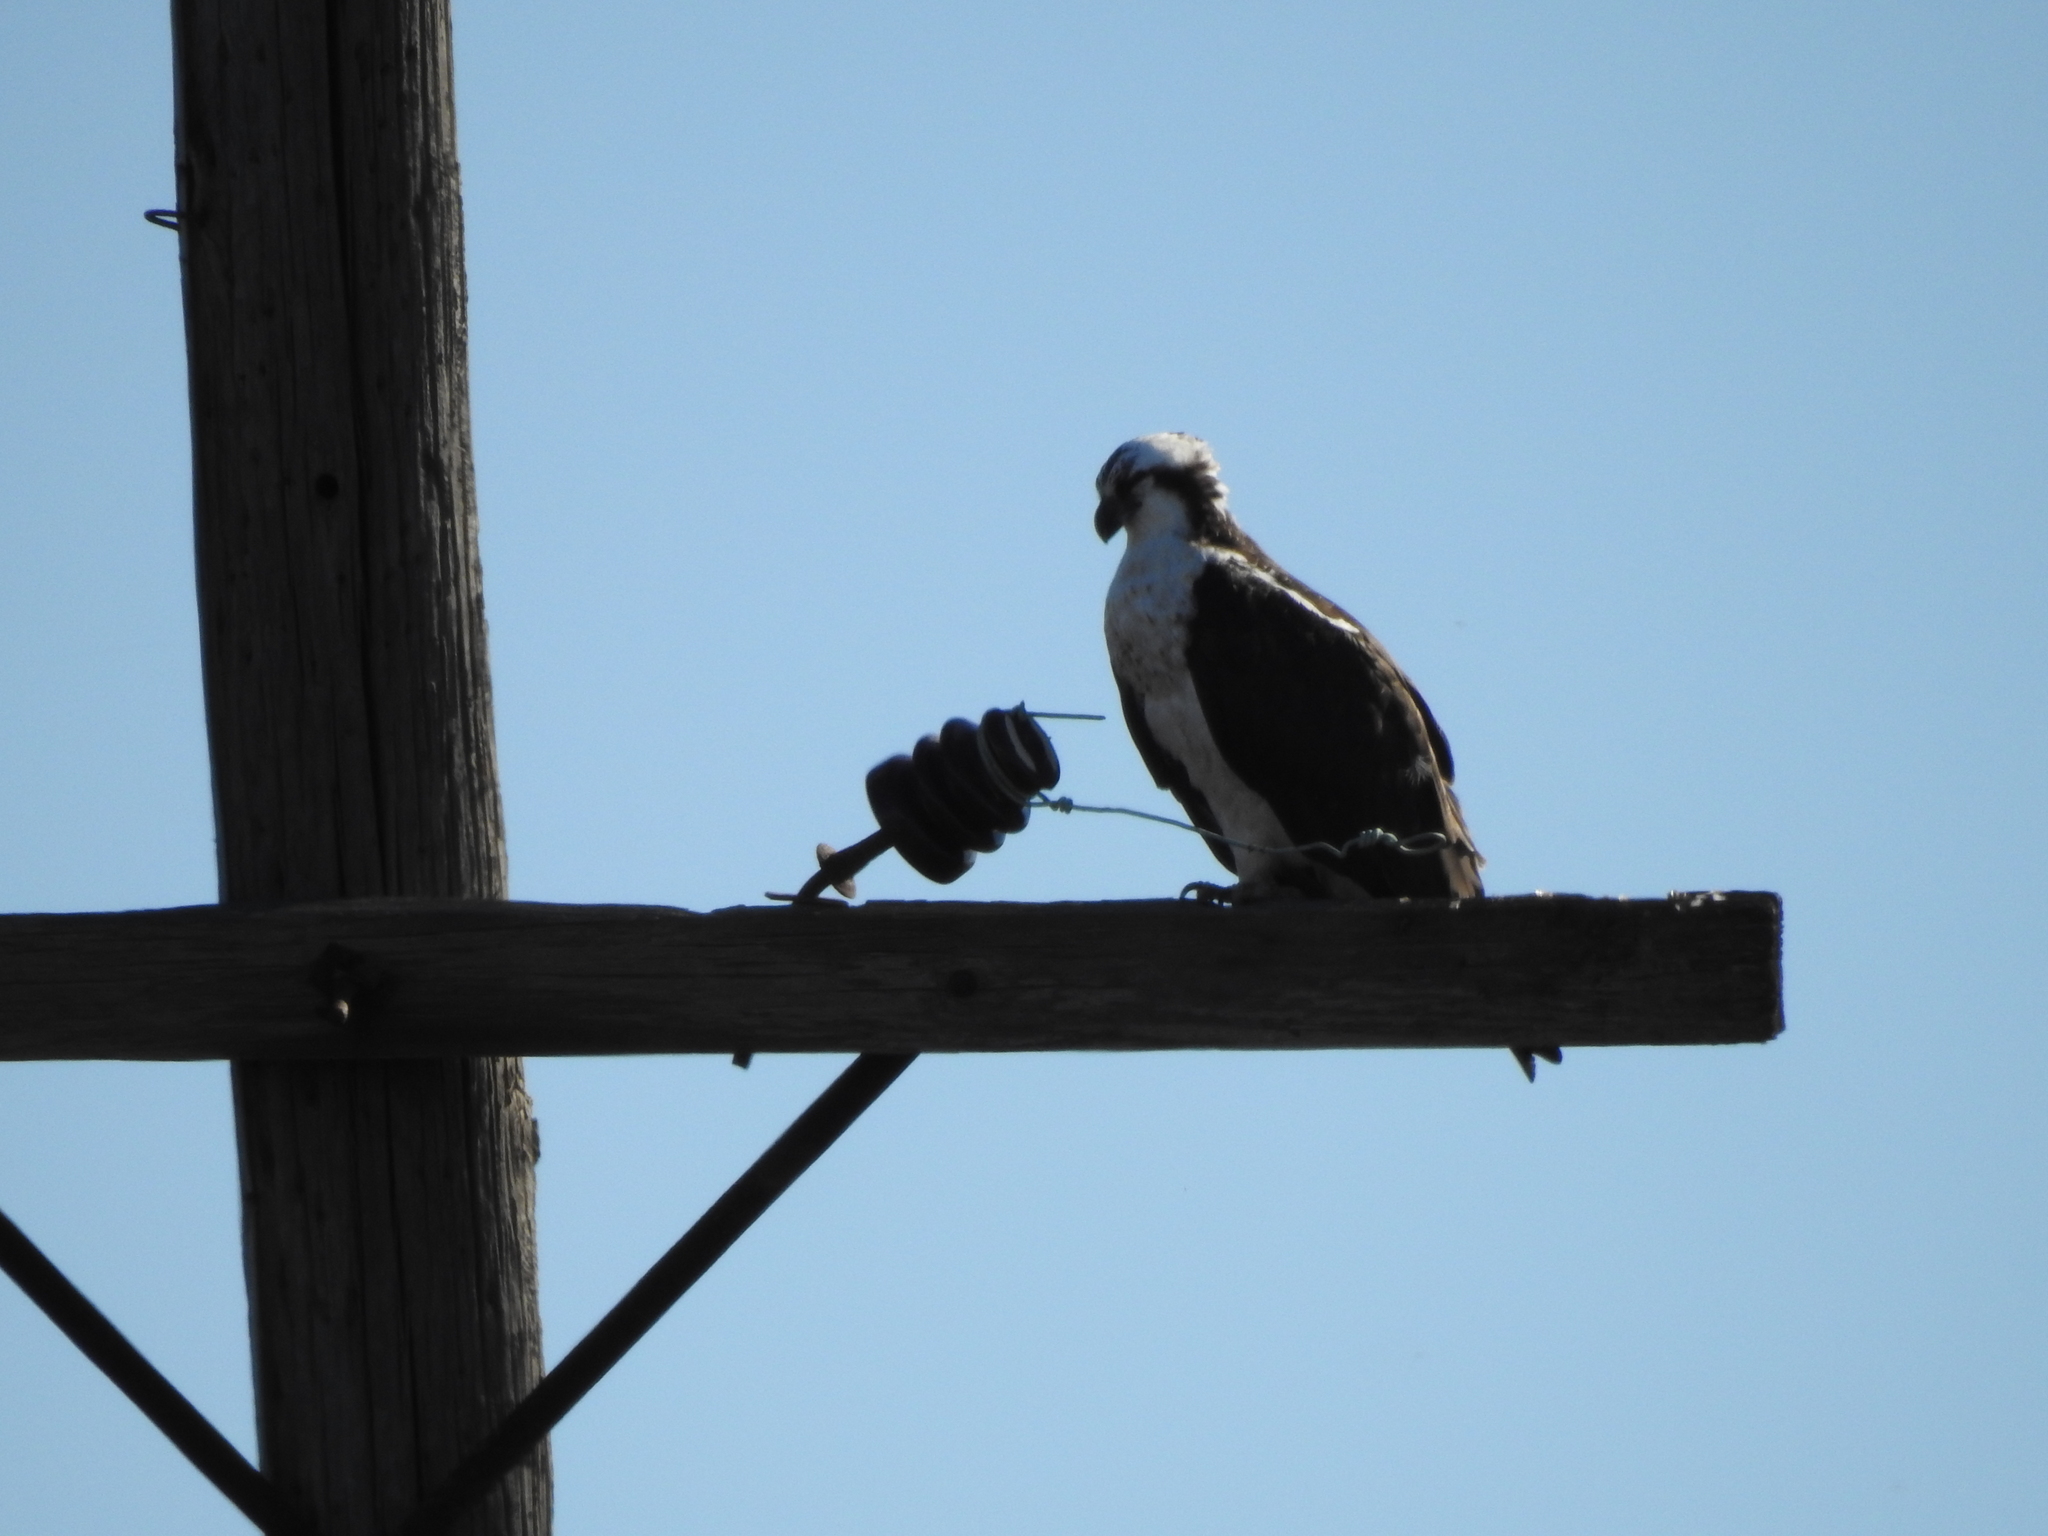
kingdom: Animalia
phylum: Chordata
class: Aves
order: Accipitriformes
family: Pandionidae
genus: Pandion
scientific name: Pandion haliaetus
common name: Osprey
